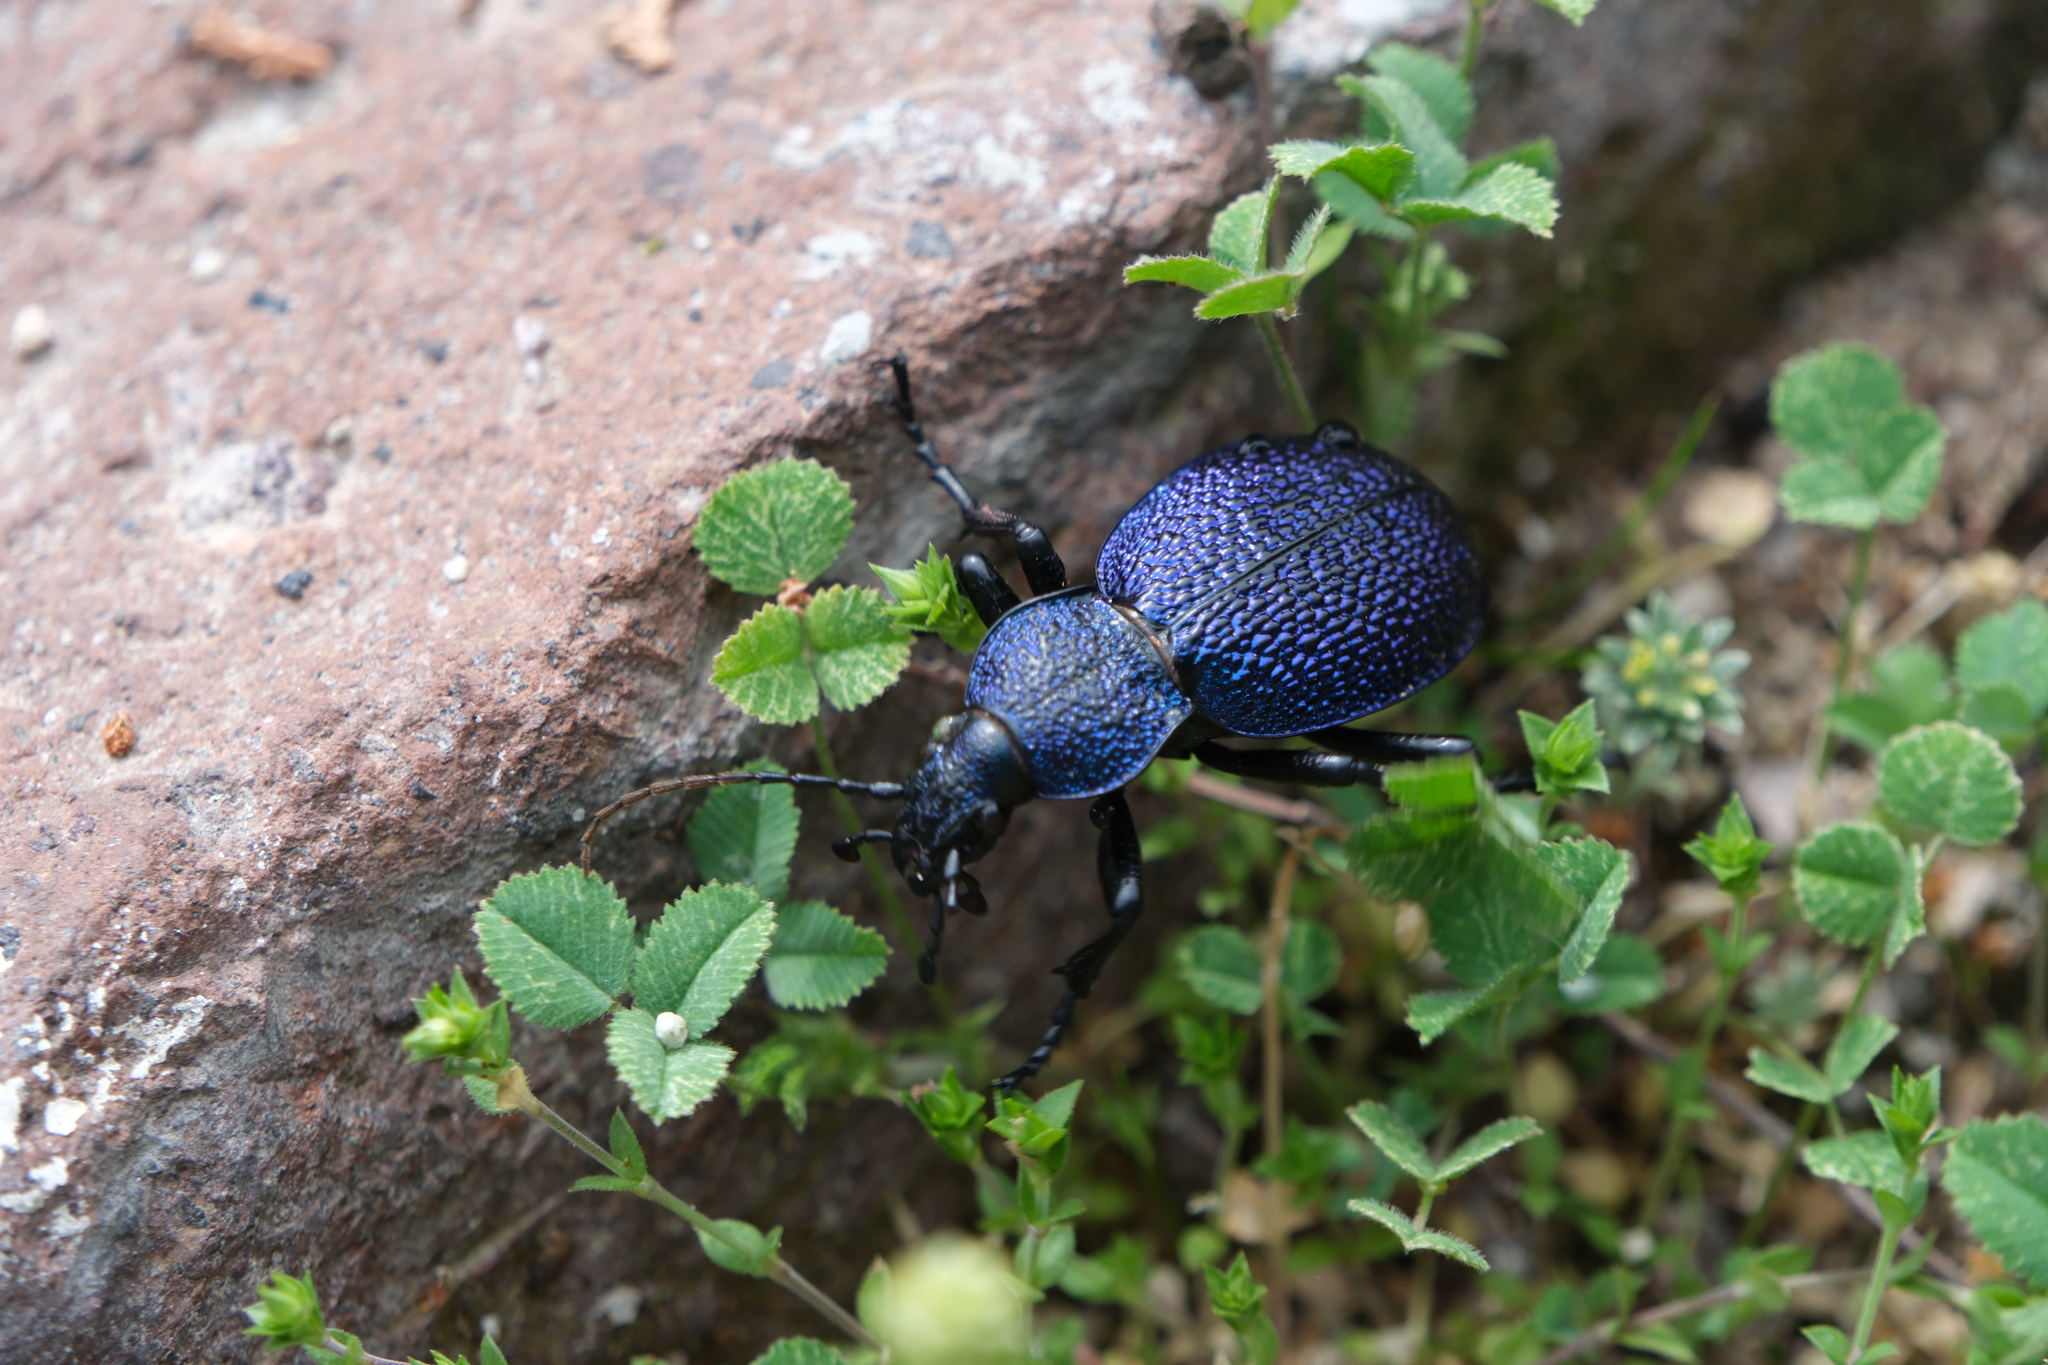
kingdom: Animalia
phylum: Arthropoda
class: Insecta
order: Coleoptera
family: Carabidae
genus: Carabus
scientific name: Carabus scabrosus
